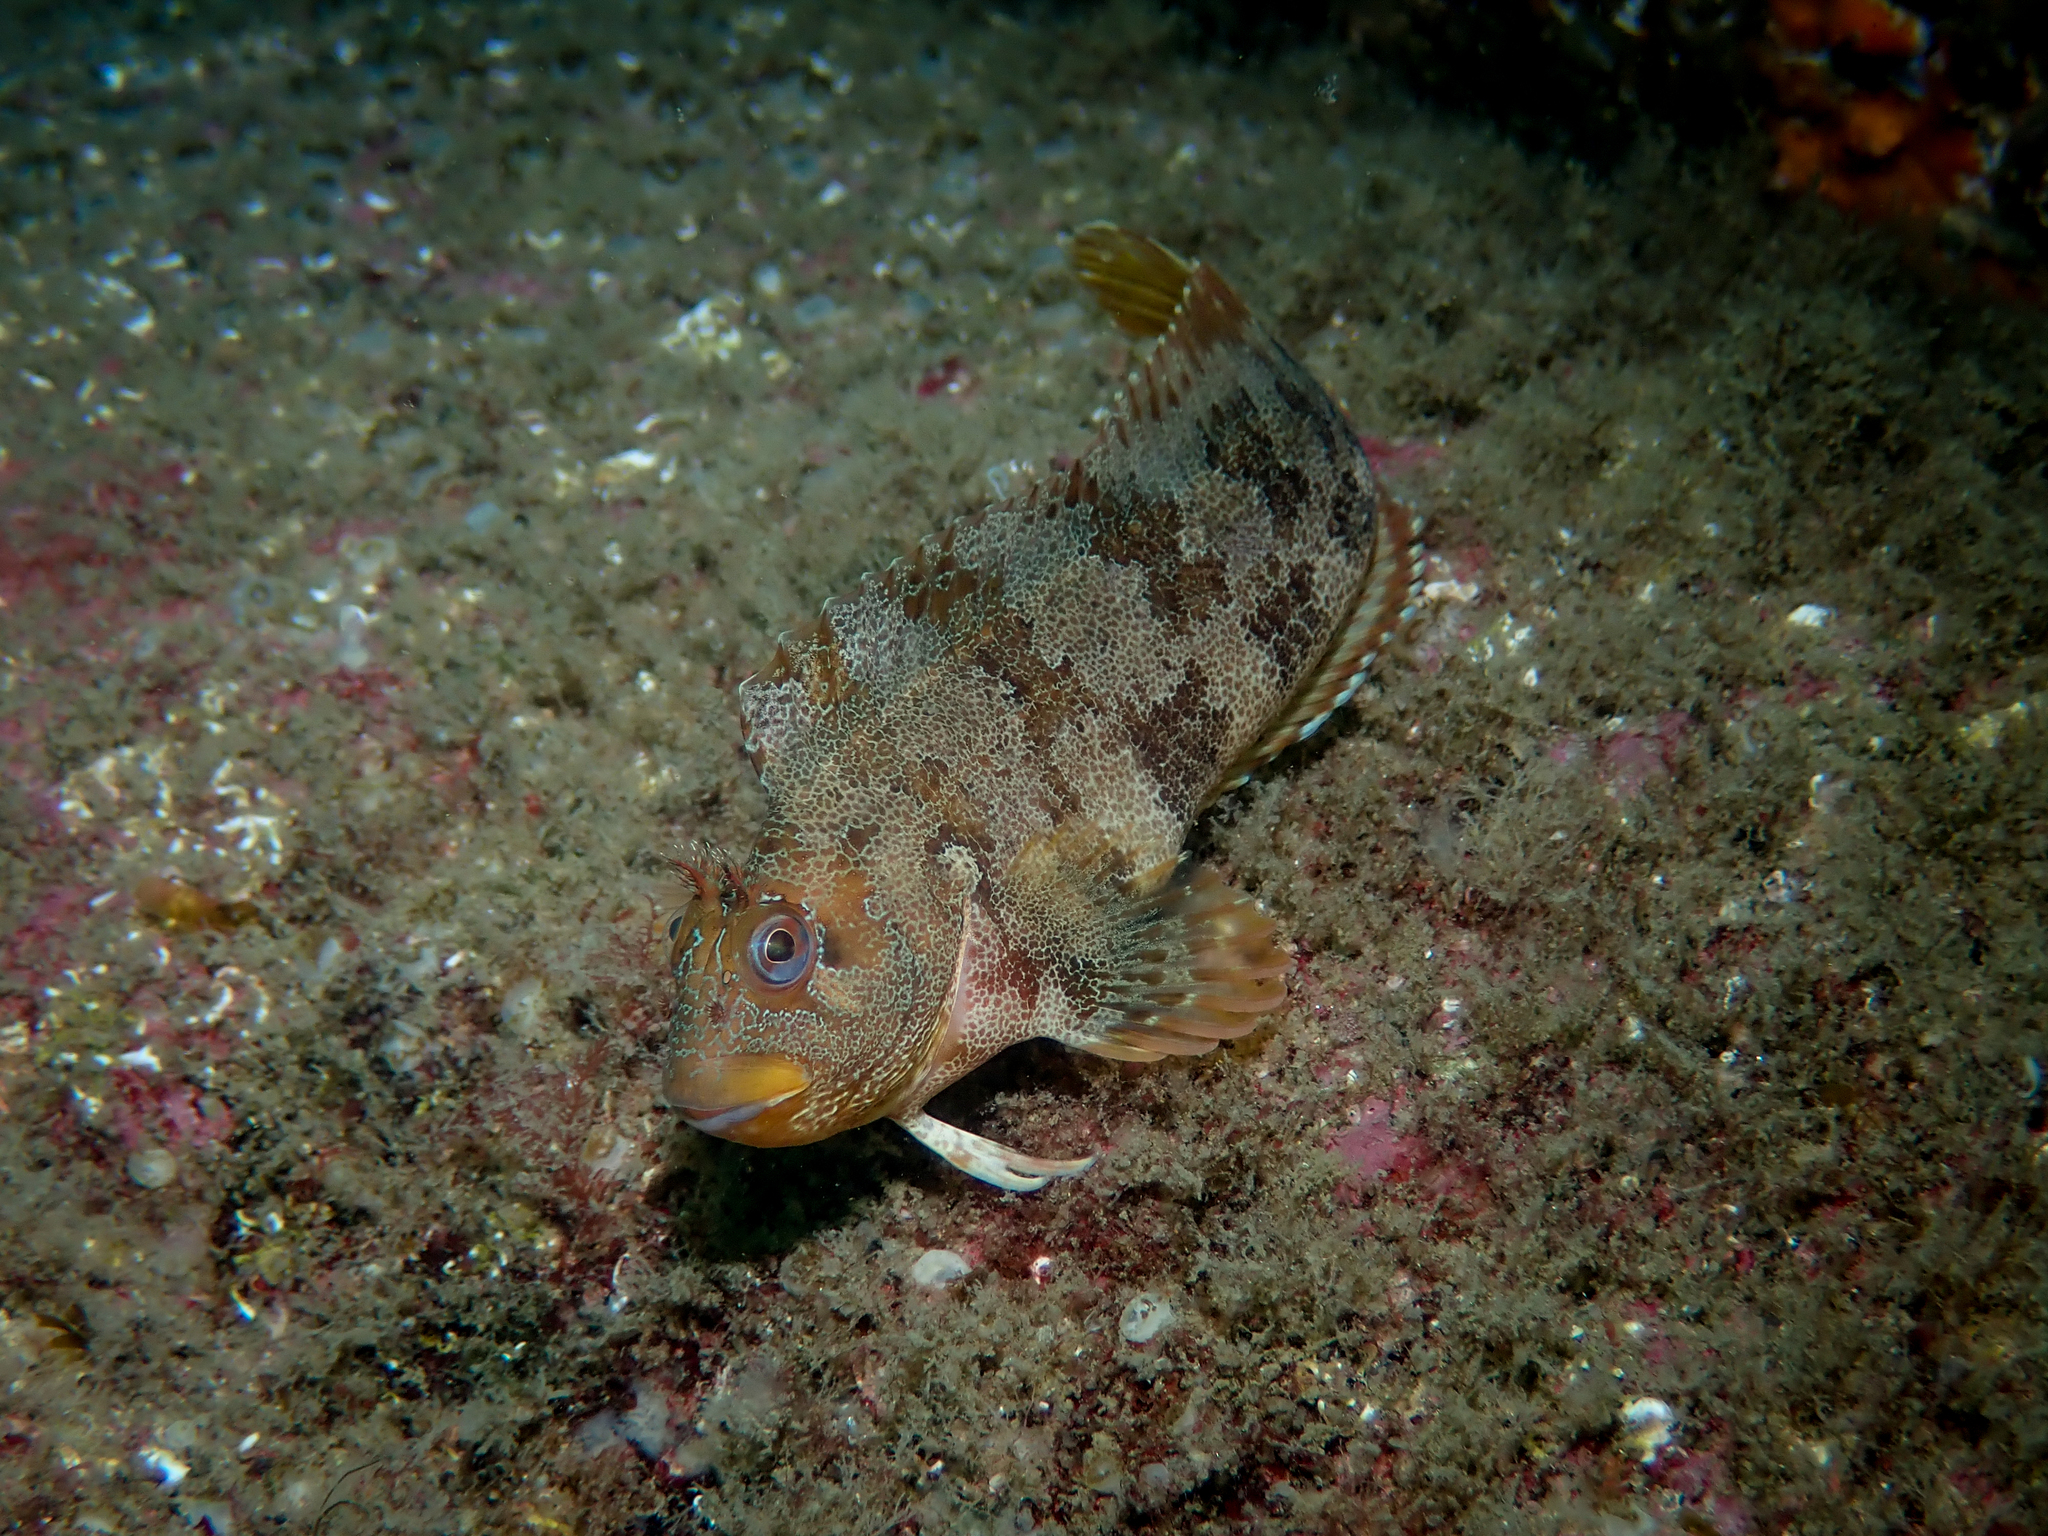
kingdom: Animalia
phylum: Chordata
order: Perciformes
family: Blenniidae
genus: Parablennius
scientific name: Parablennius gattorugine
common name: Tompot blenny
